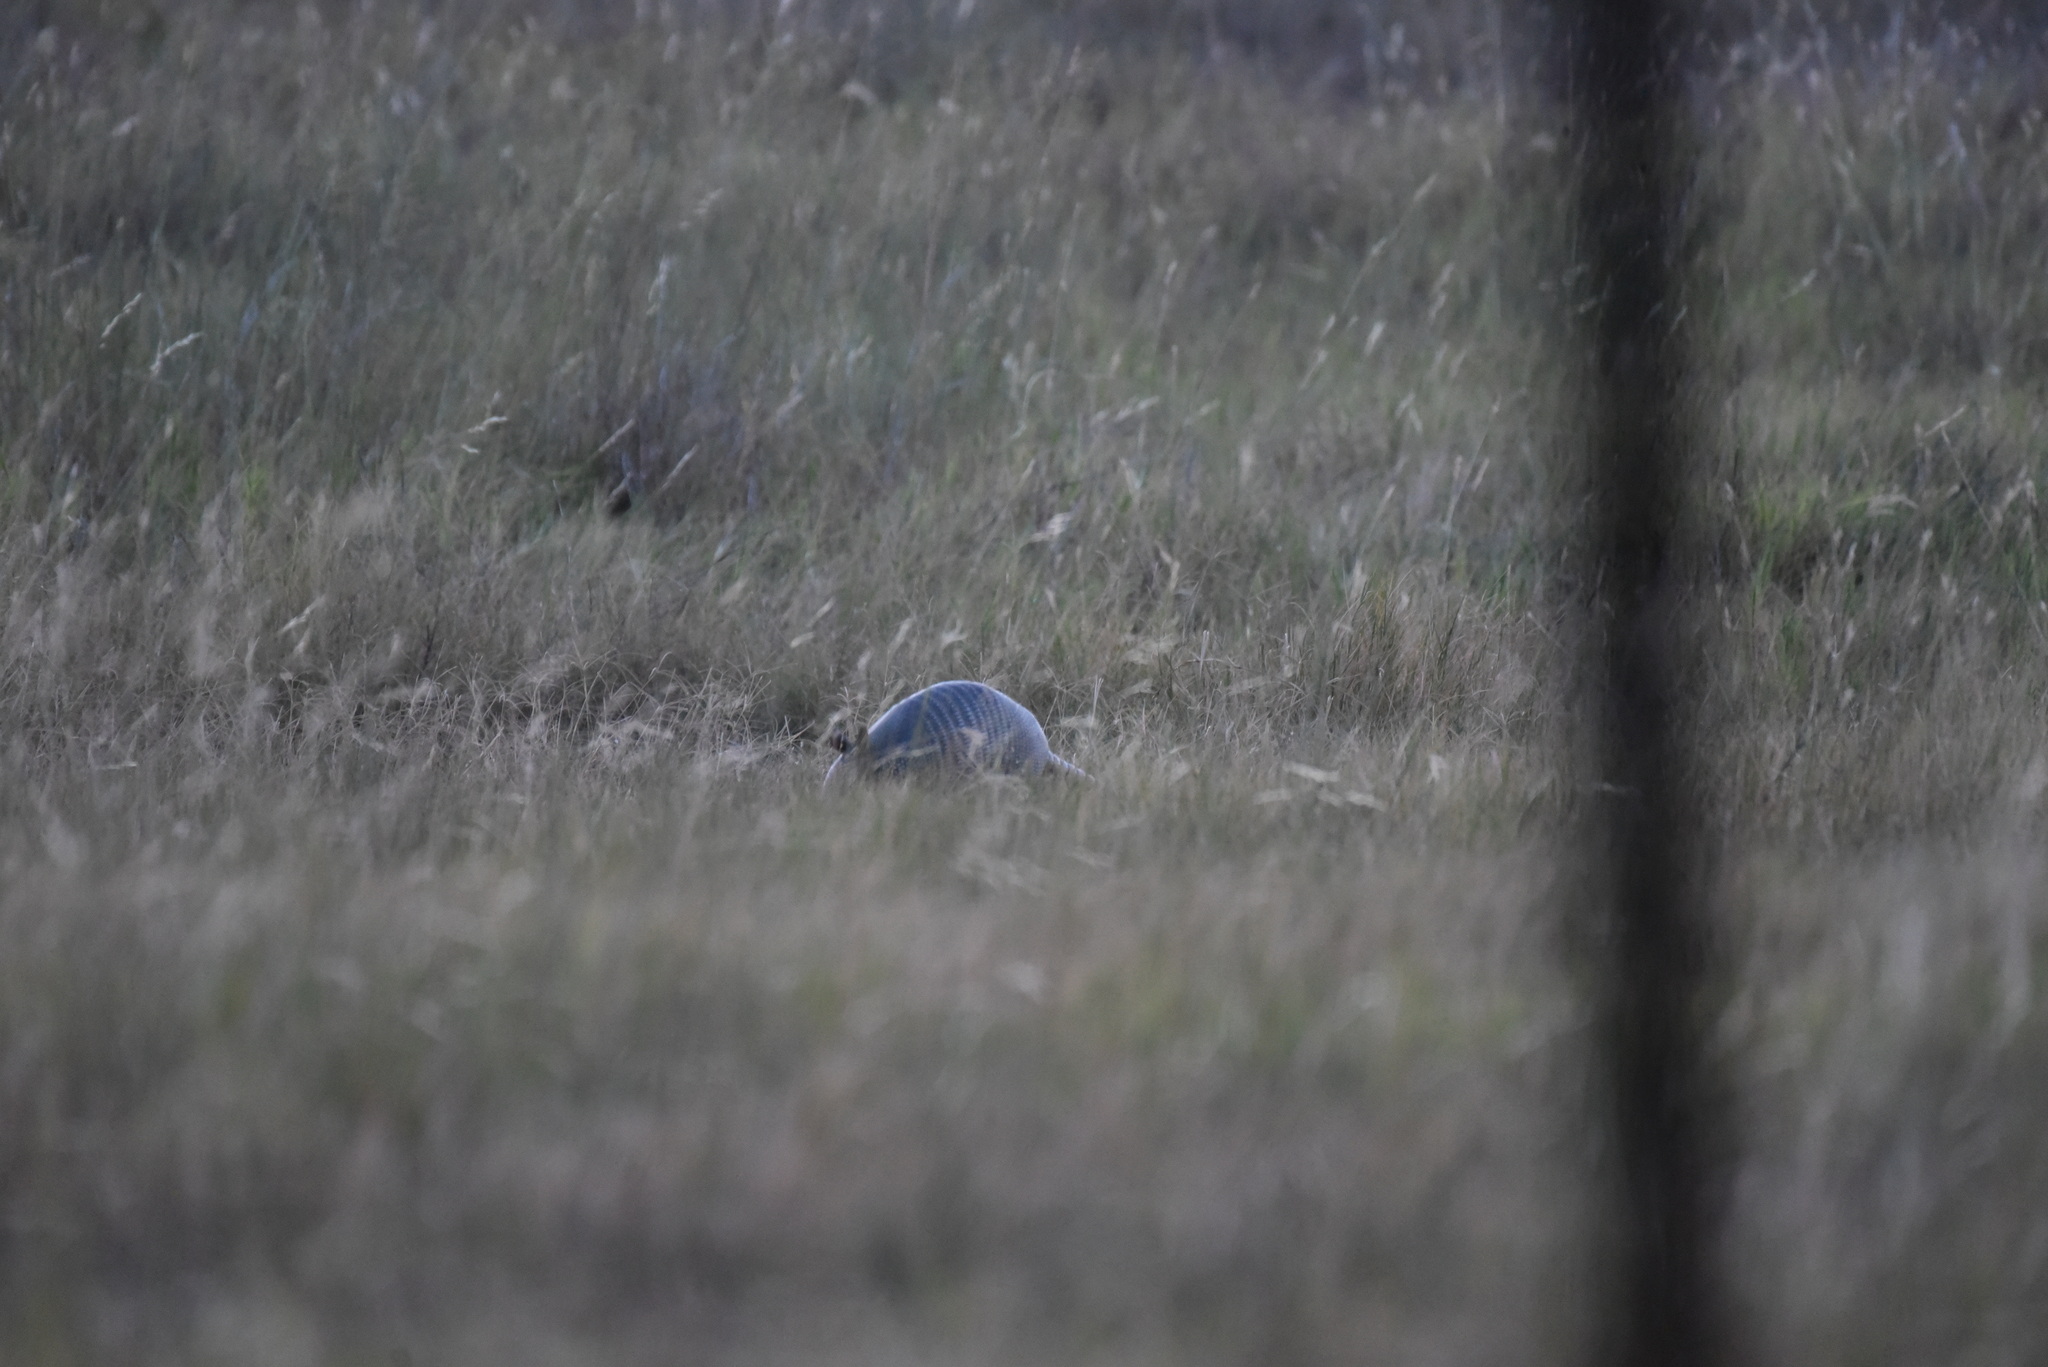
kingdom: Animalia
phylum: Chordata
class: Mammalia
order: Cingulata
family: Dasypodidae
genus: Dasypus
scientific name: Dasypus novemcinctus
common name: Nine-banded armadillo
